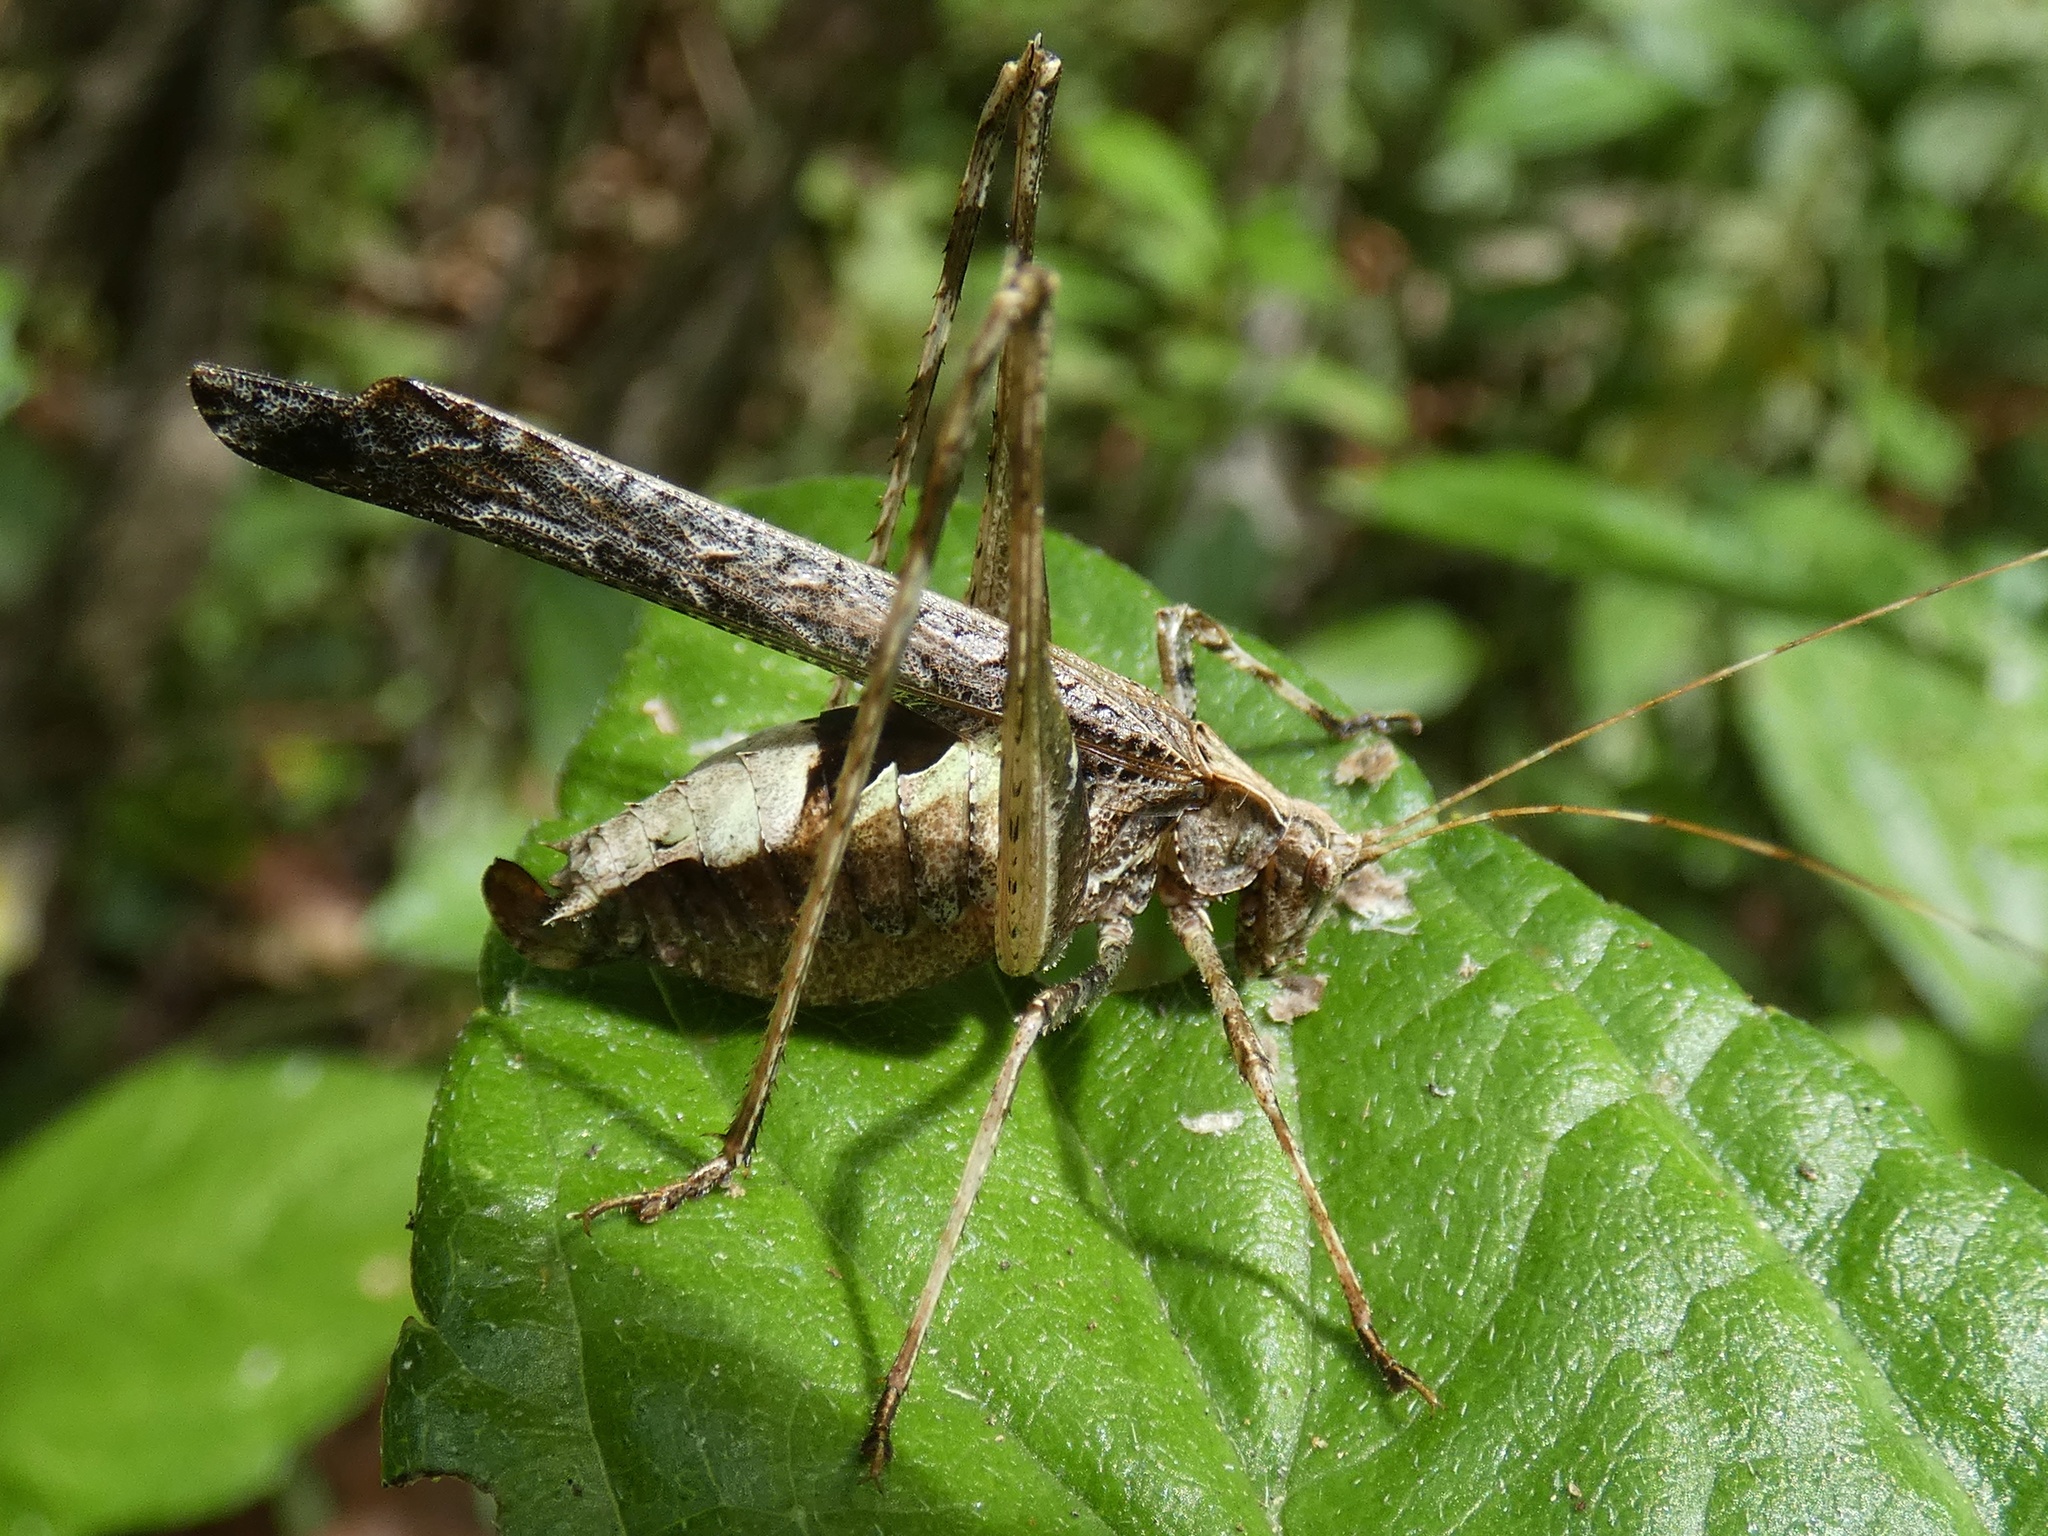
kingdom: Animalia
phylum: Arthropoda
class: Insecta
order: Orthoptera
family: Tettigoniidae
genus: Insara
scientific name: Insara bolivari
